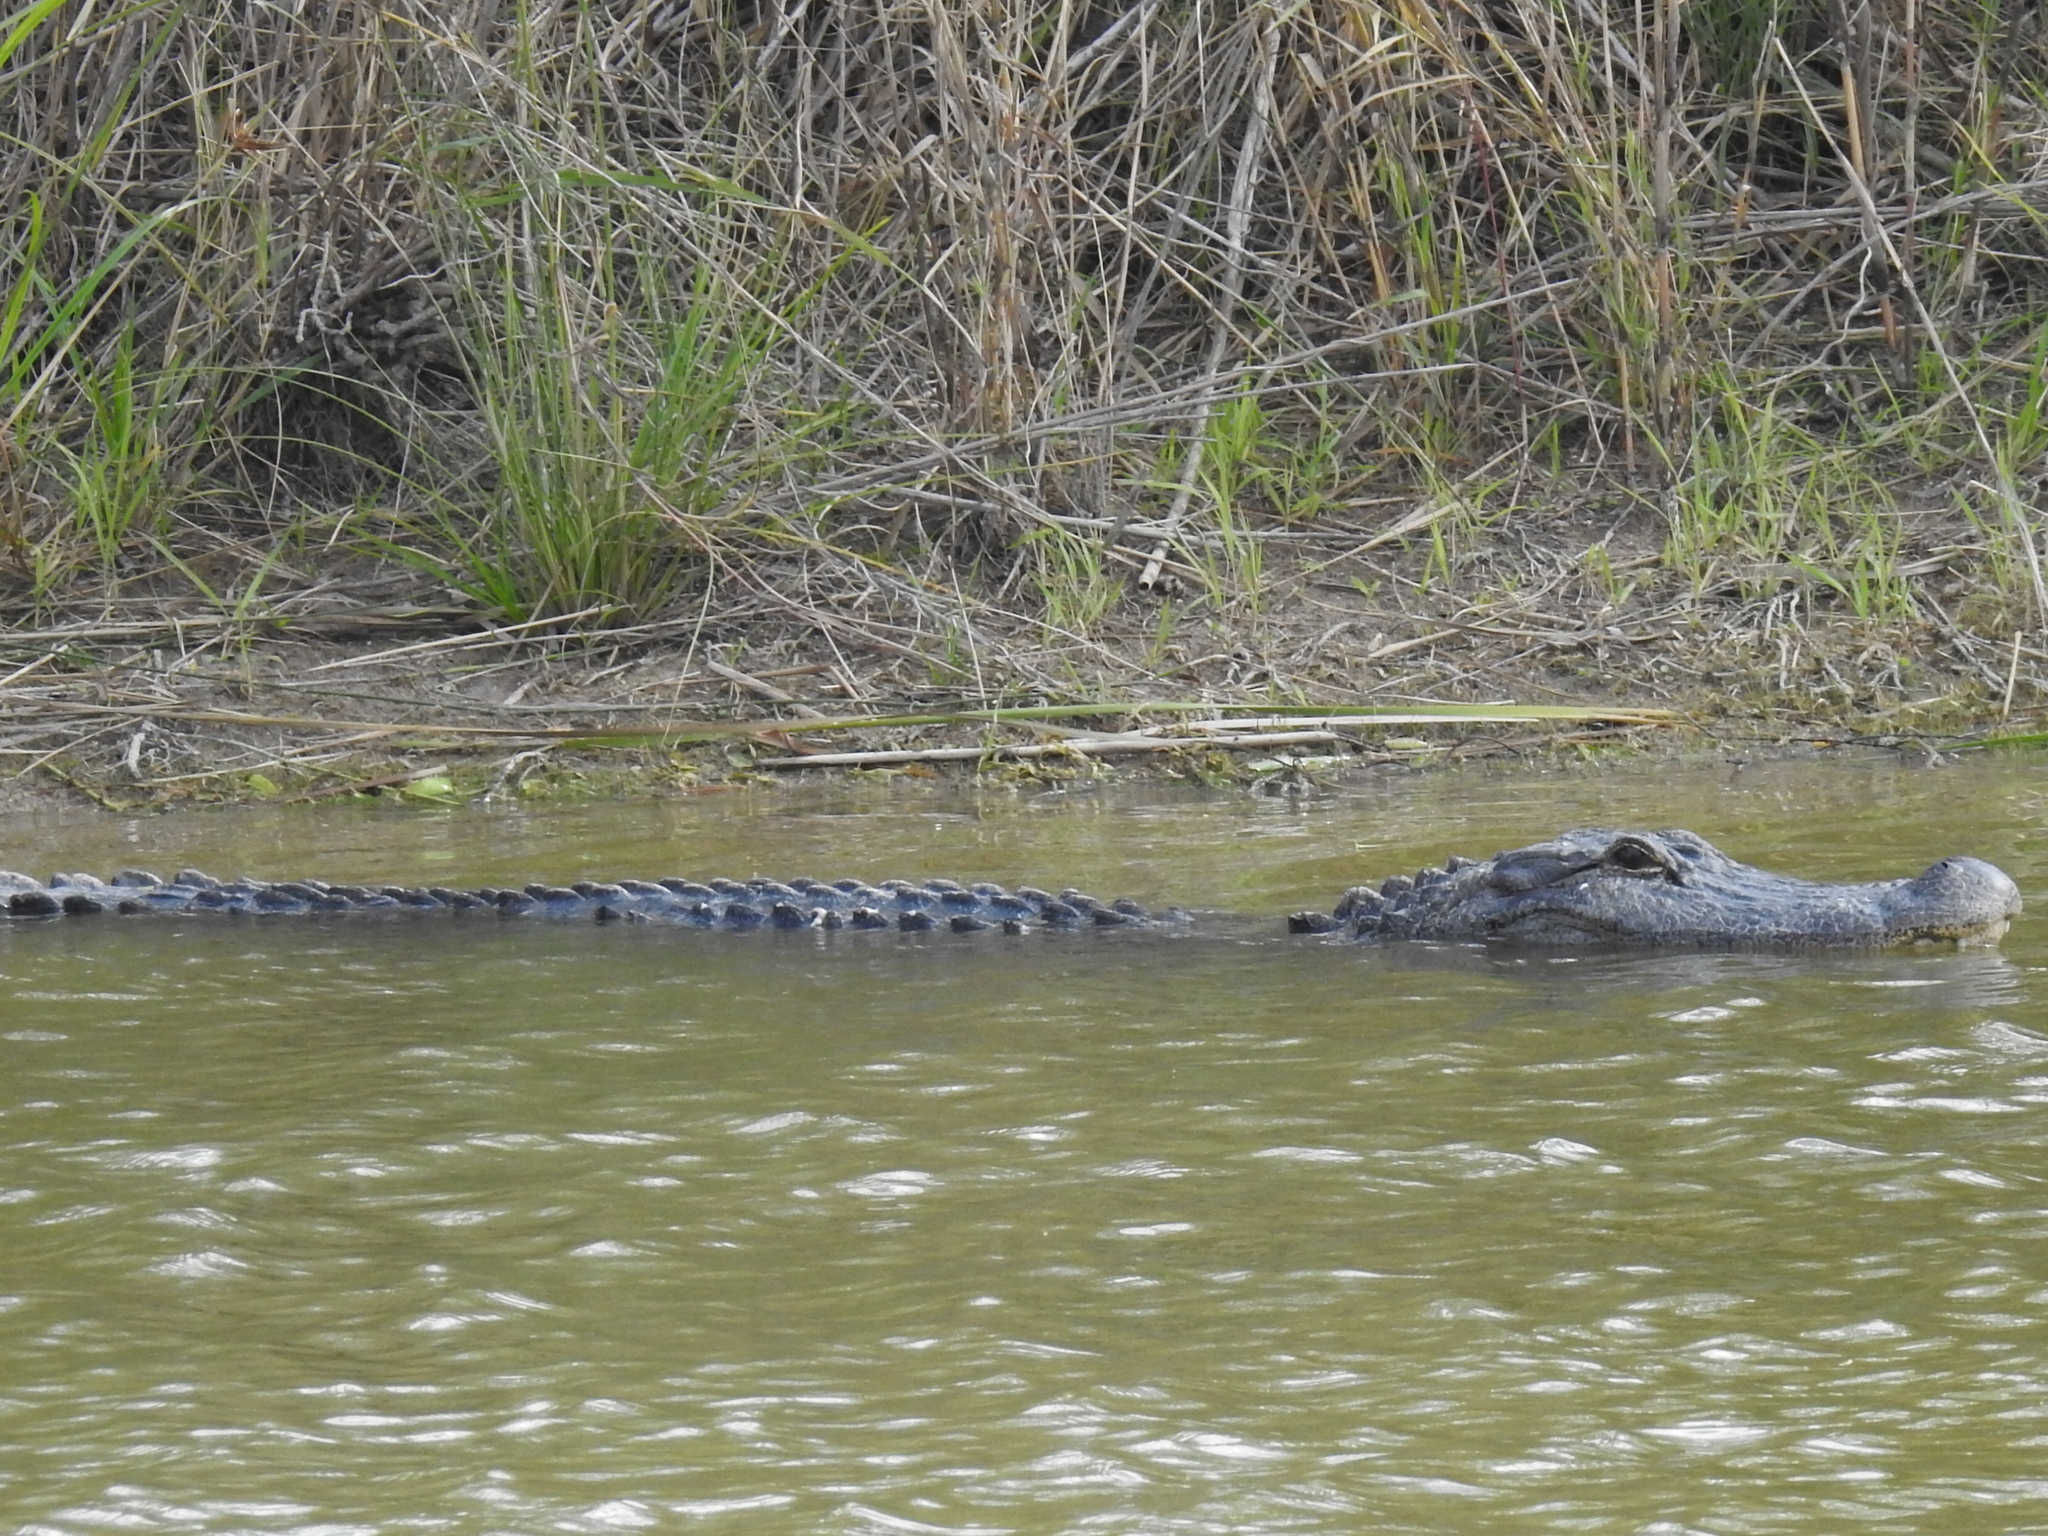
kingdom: Animalia
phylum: Chordata
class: Crocodylia
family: Alligatoridae
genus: Alligator
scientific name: Alligator mississippiensis
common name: American alligator
